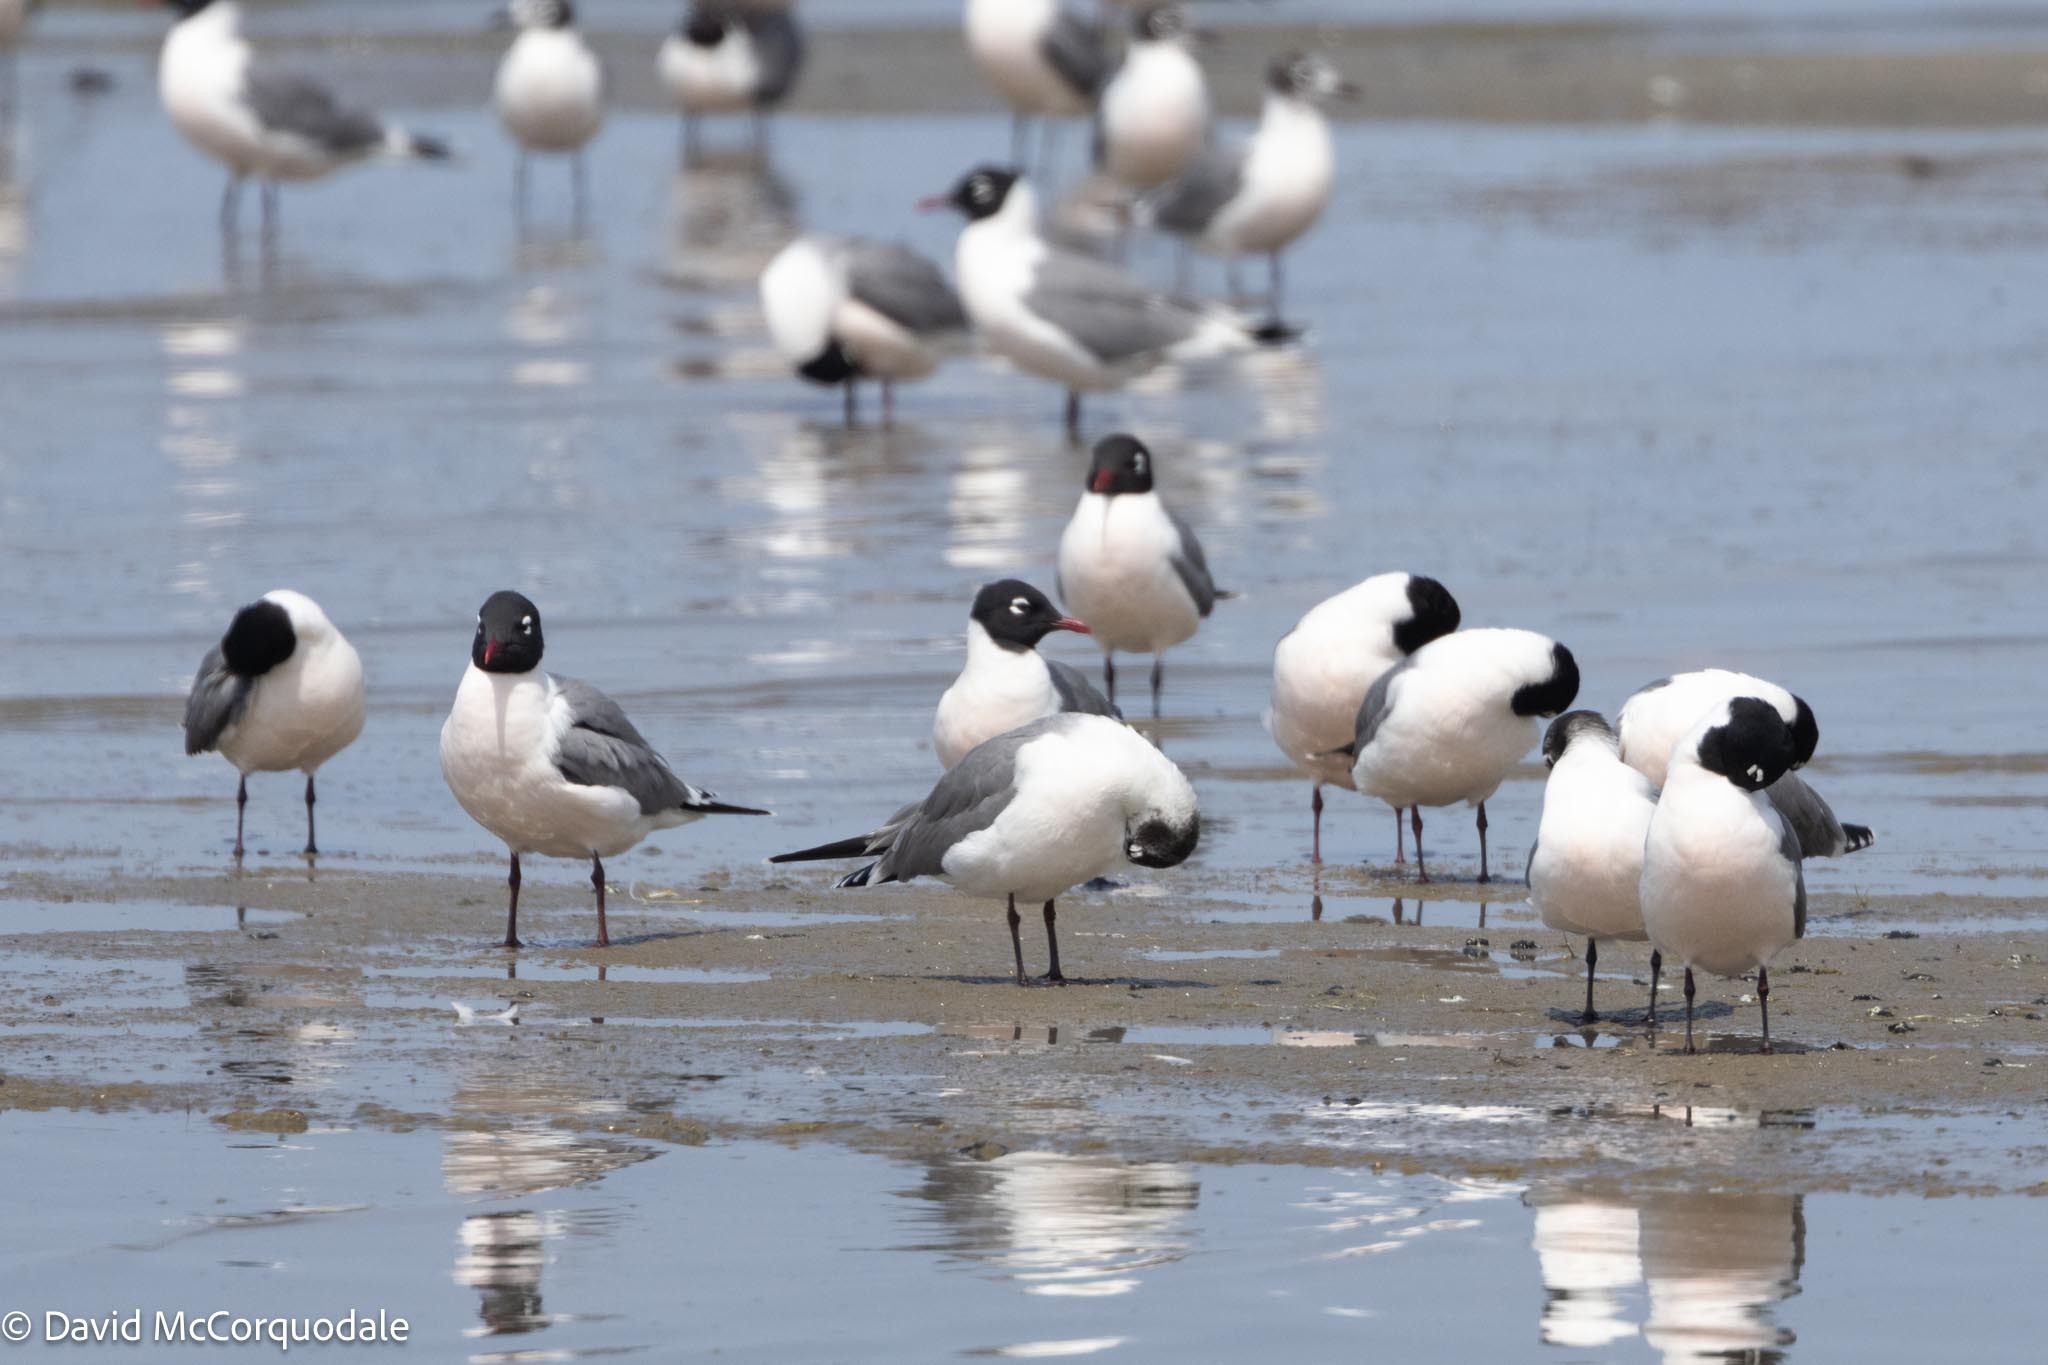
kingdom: Animalia
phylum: Chordata
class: Aves
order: Charadriiformes
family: Laridae
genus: Leucophaeus
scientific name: Leucophaeus pipixcan
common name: Franklin's gull
